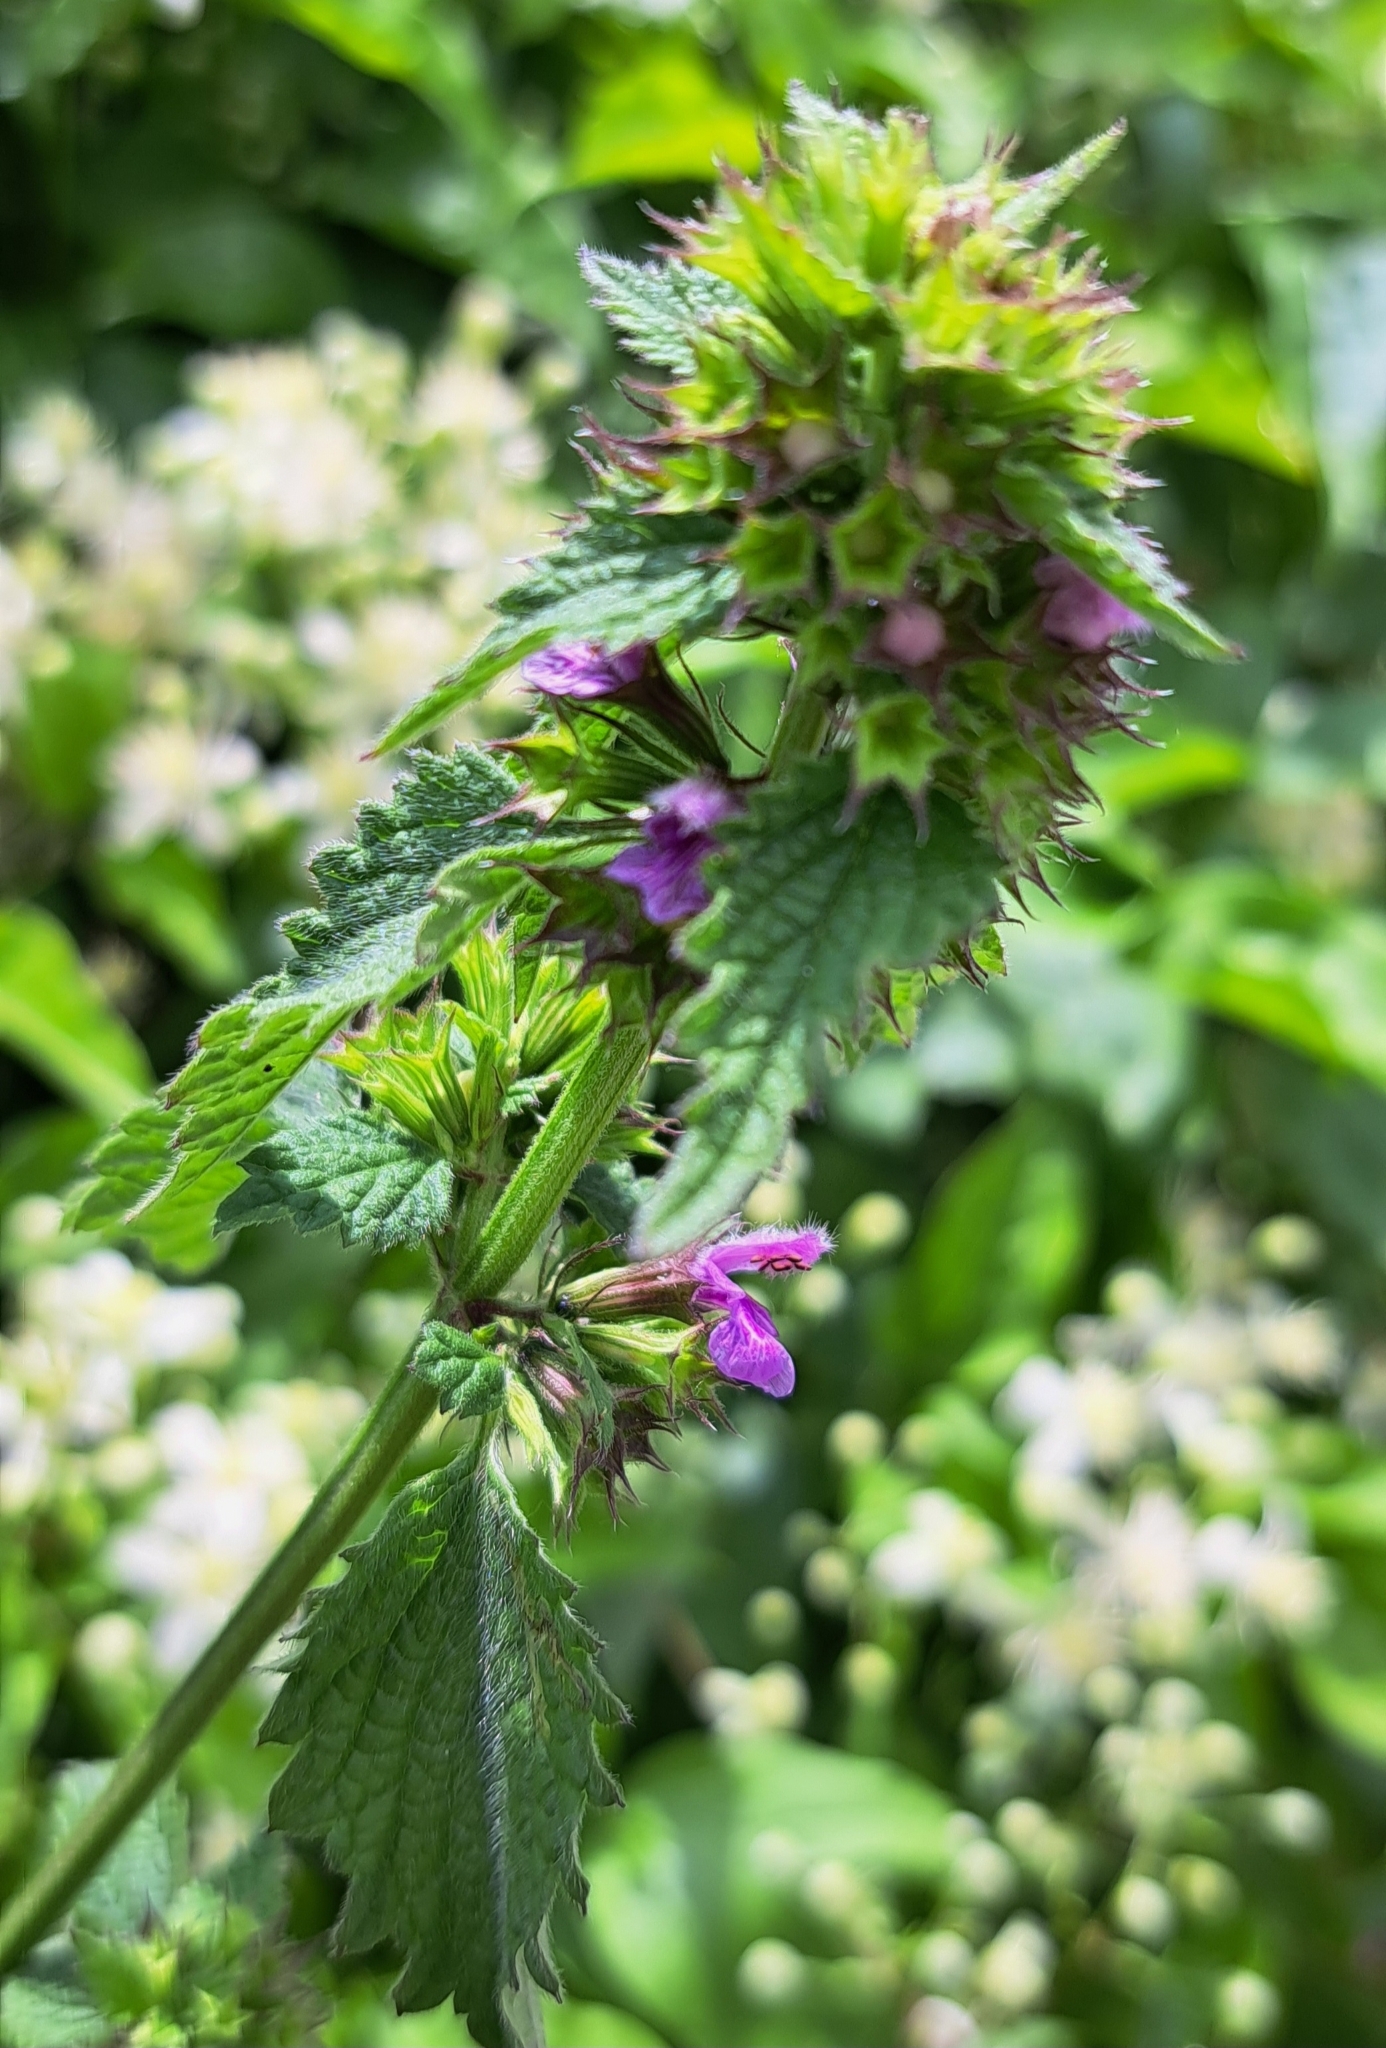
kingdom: Plantae
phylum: Tracheophyta
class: Magnoliopsida
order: Lamiales
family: Lamiaceae
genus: Ballota
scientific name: Ballota nigra
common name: Black horehound
